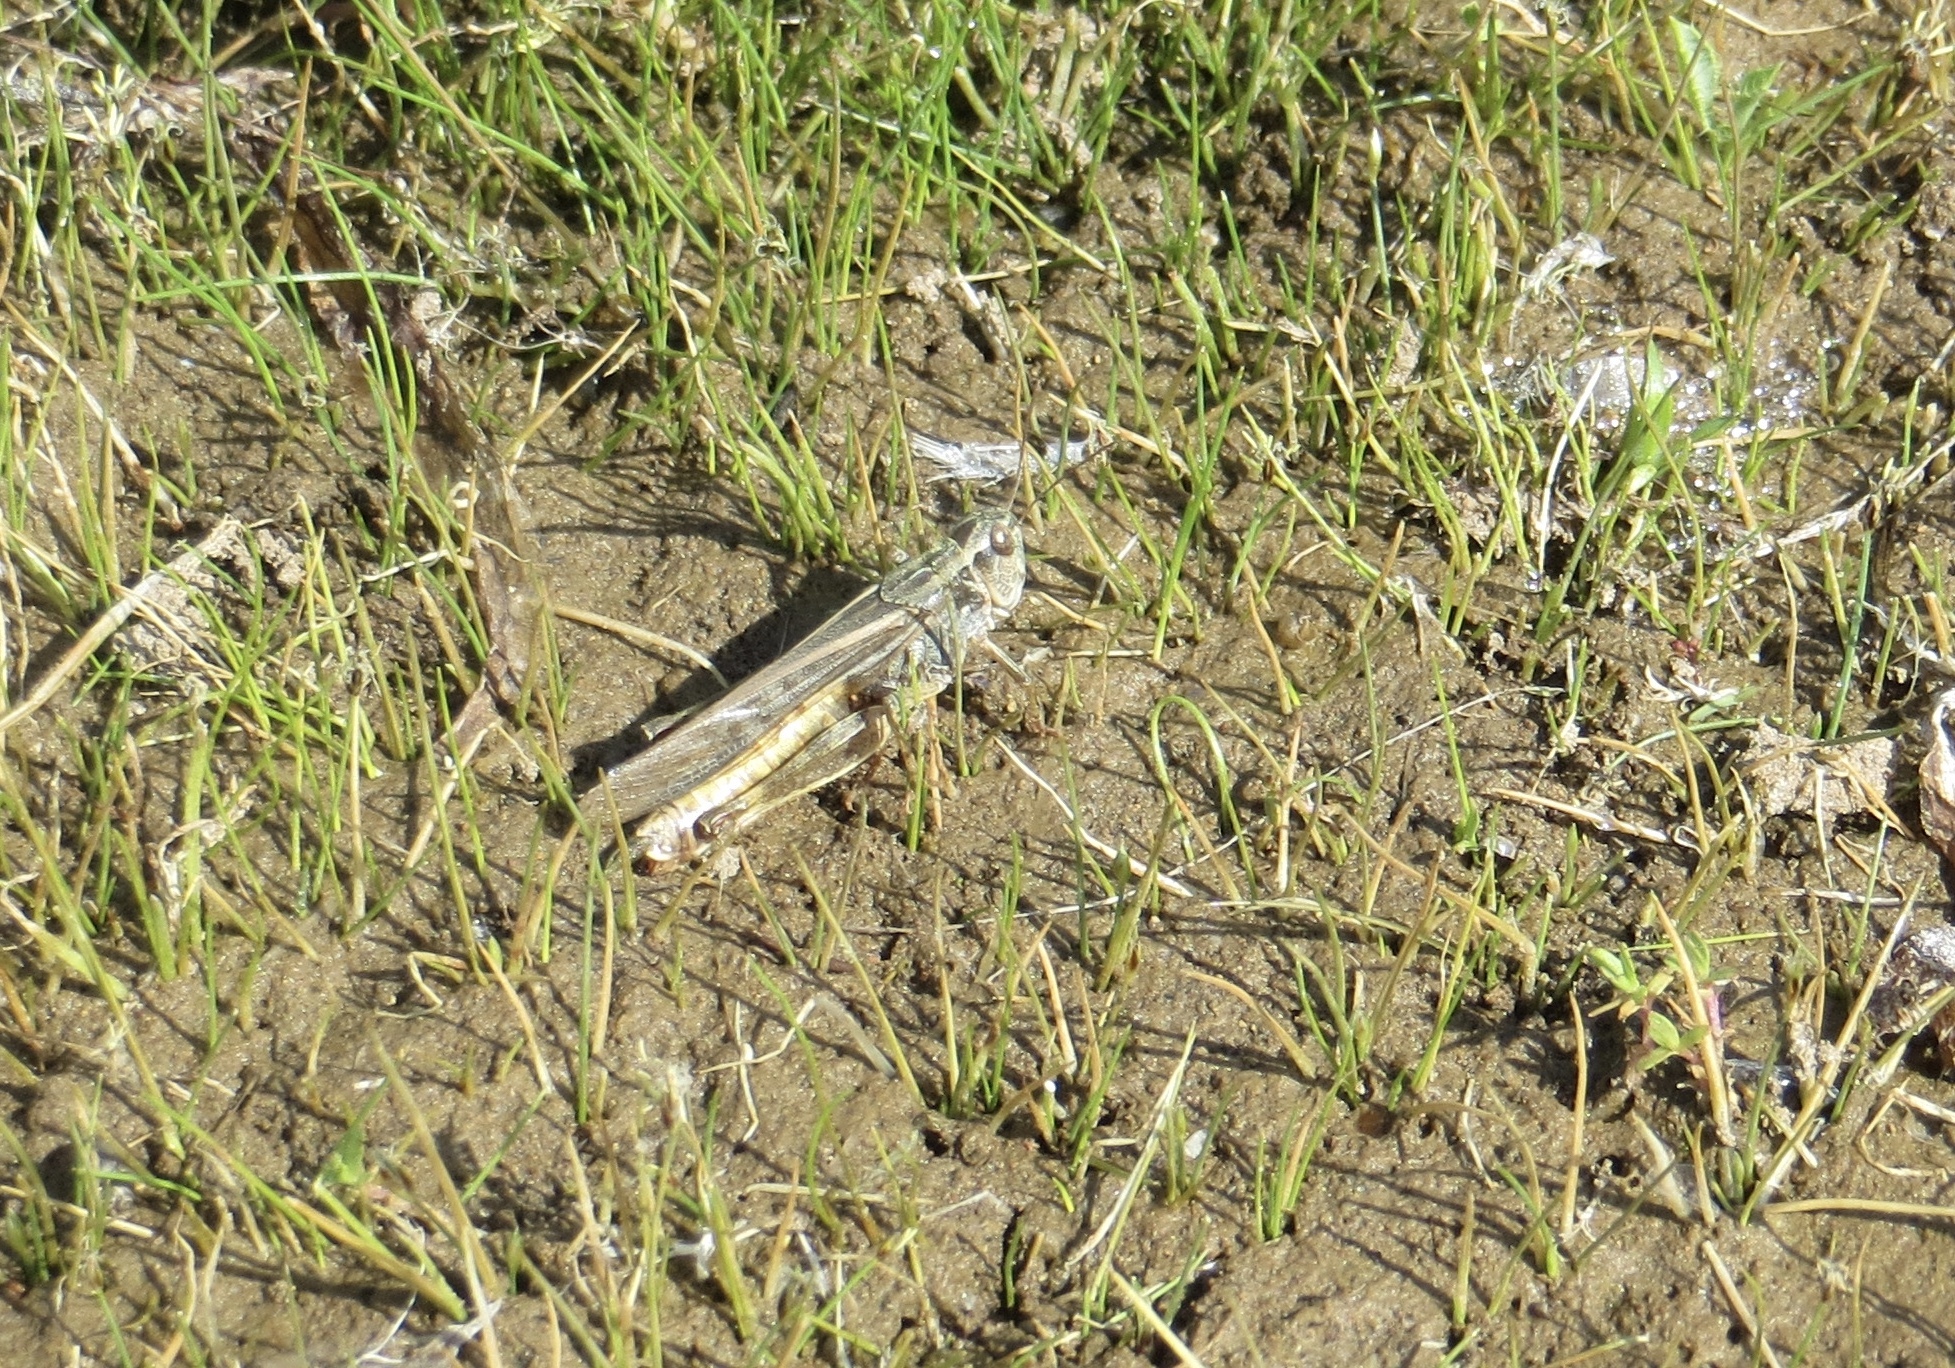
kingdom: Animalia
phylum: Arthropoda
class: Insecta
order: Orthoptera
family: Acrididae
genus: Camnula
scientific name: Camnula pellucida
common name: Clear-winged grasshopper
